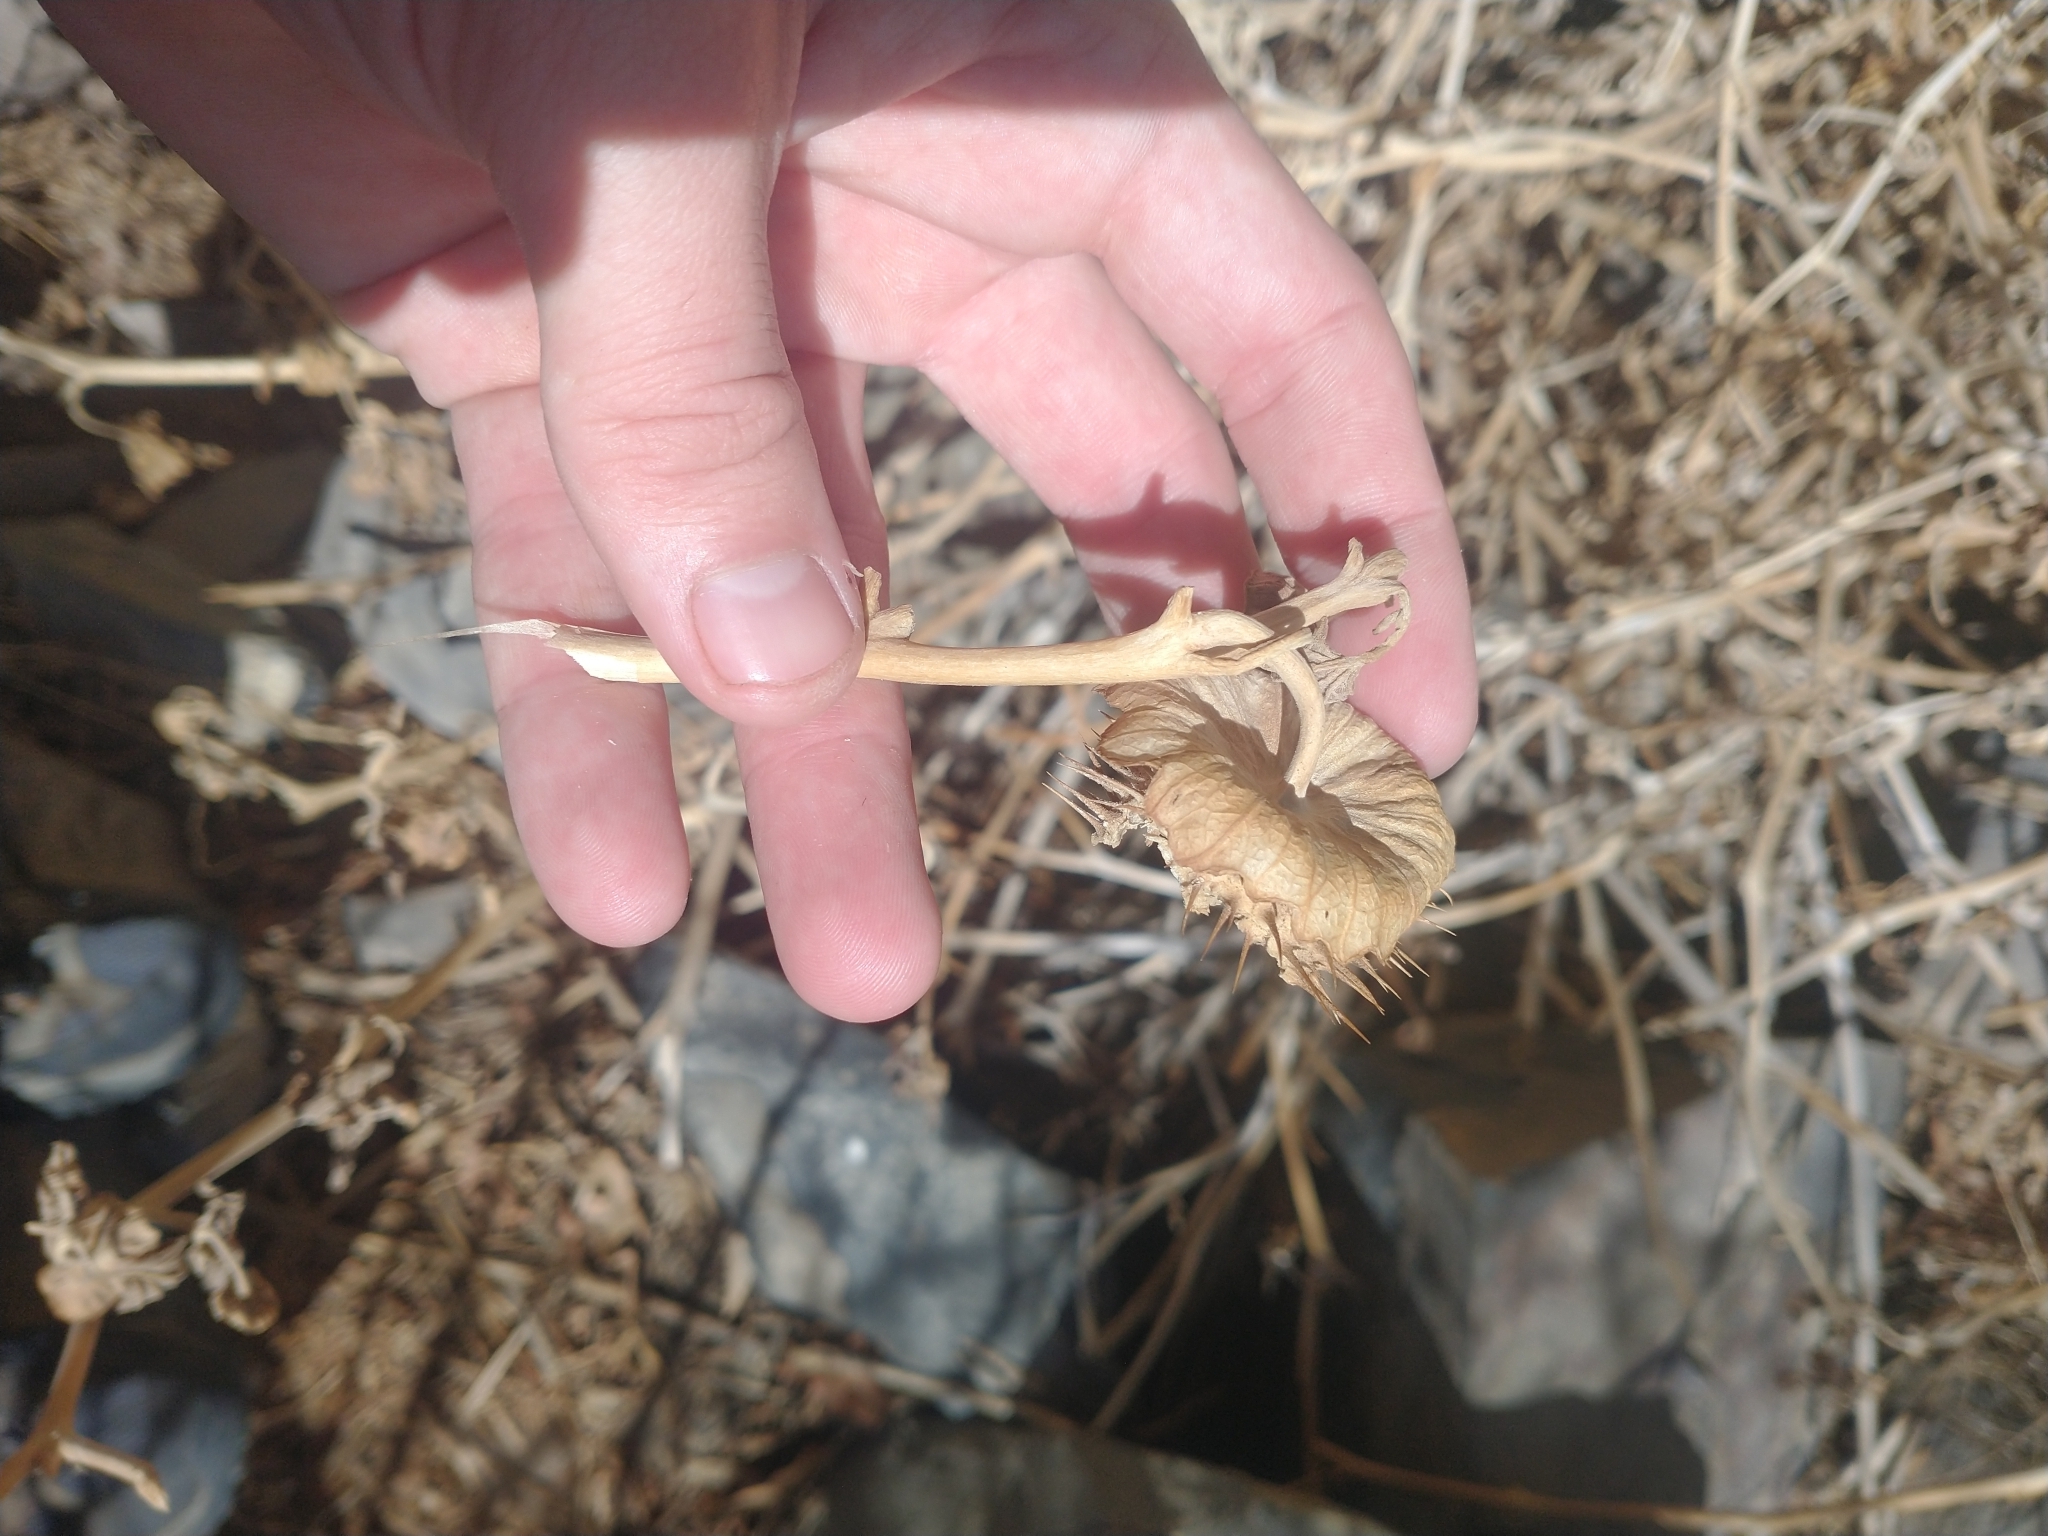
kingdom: Plantae
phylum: Tracheophyta
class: Magnoliopsida
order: Solanales
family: Solanaceae
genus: Datura
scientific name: Datura wrightii
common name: Sacred thorn-apple
